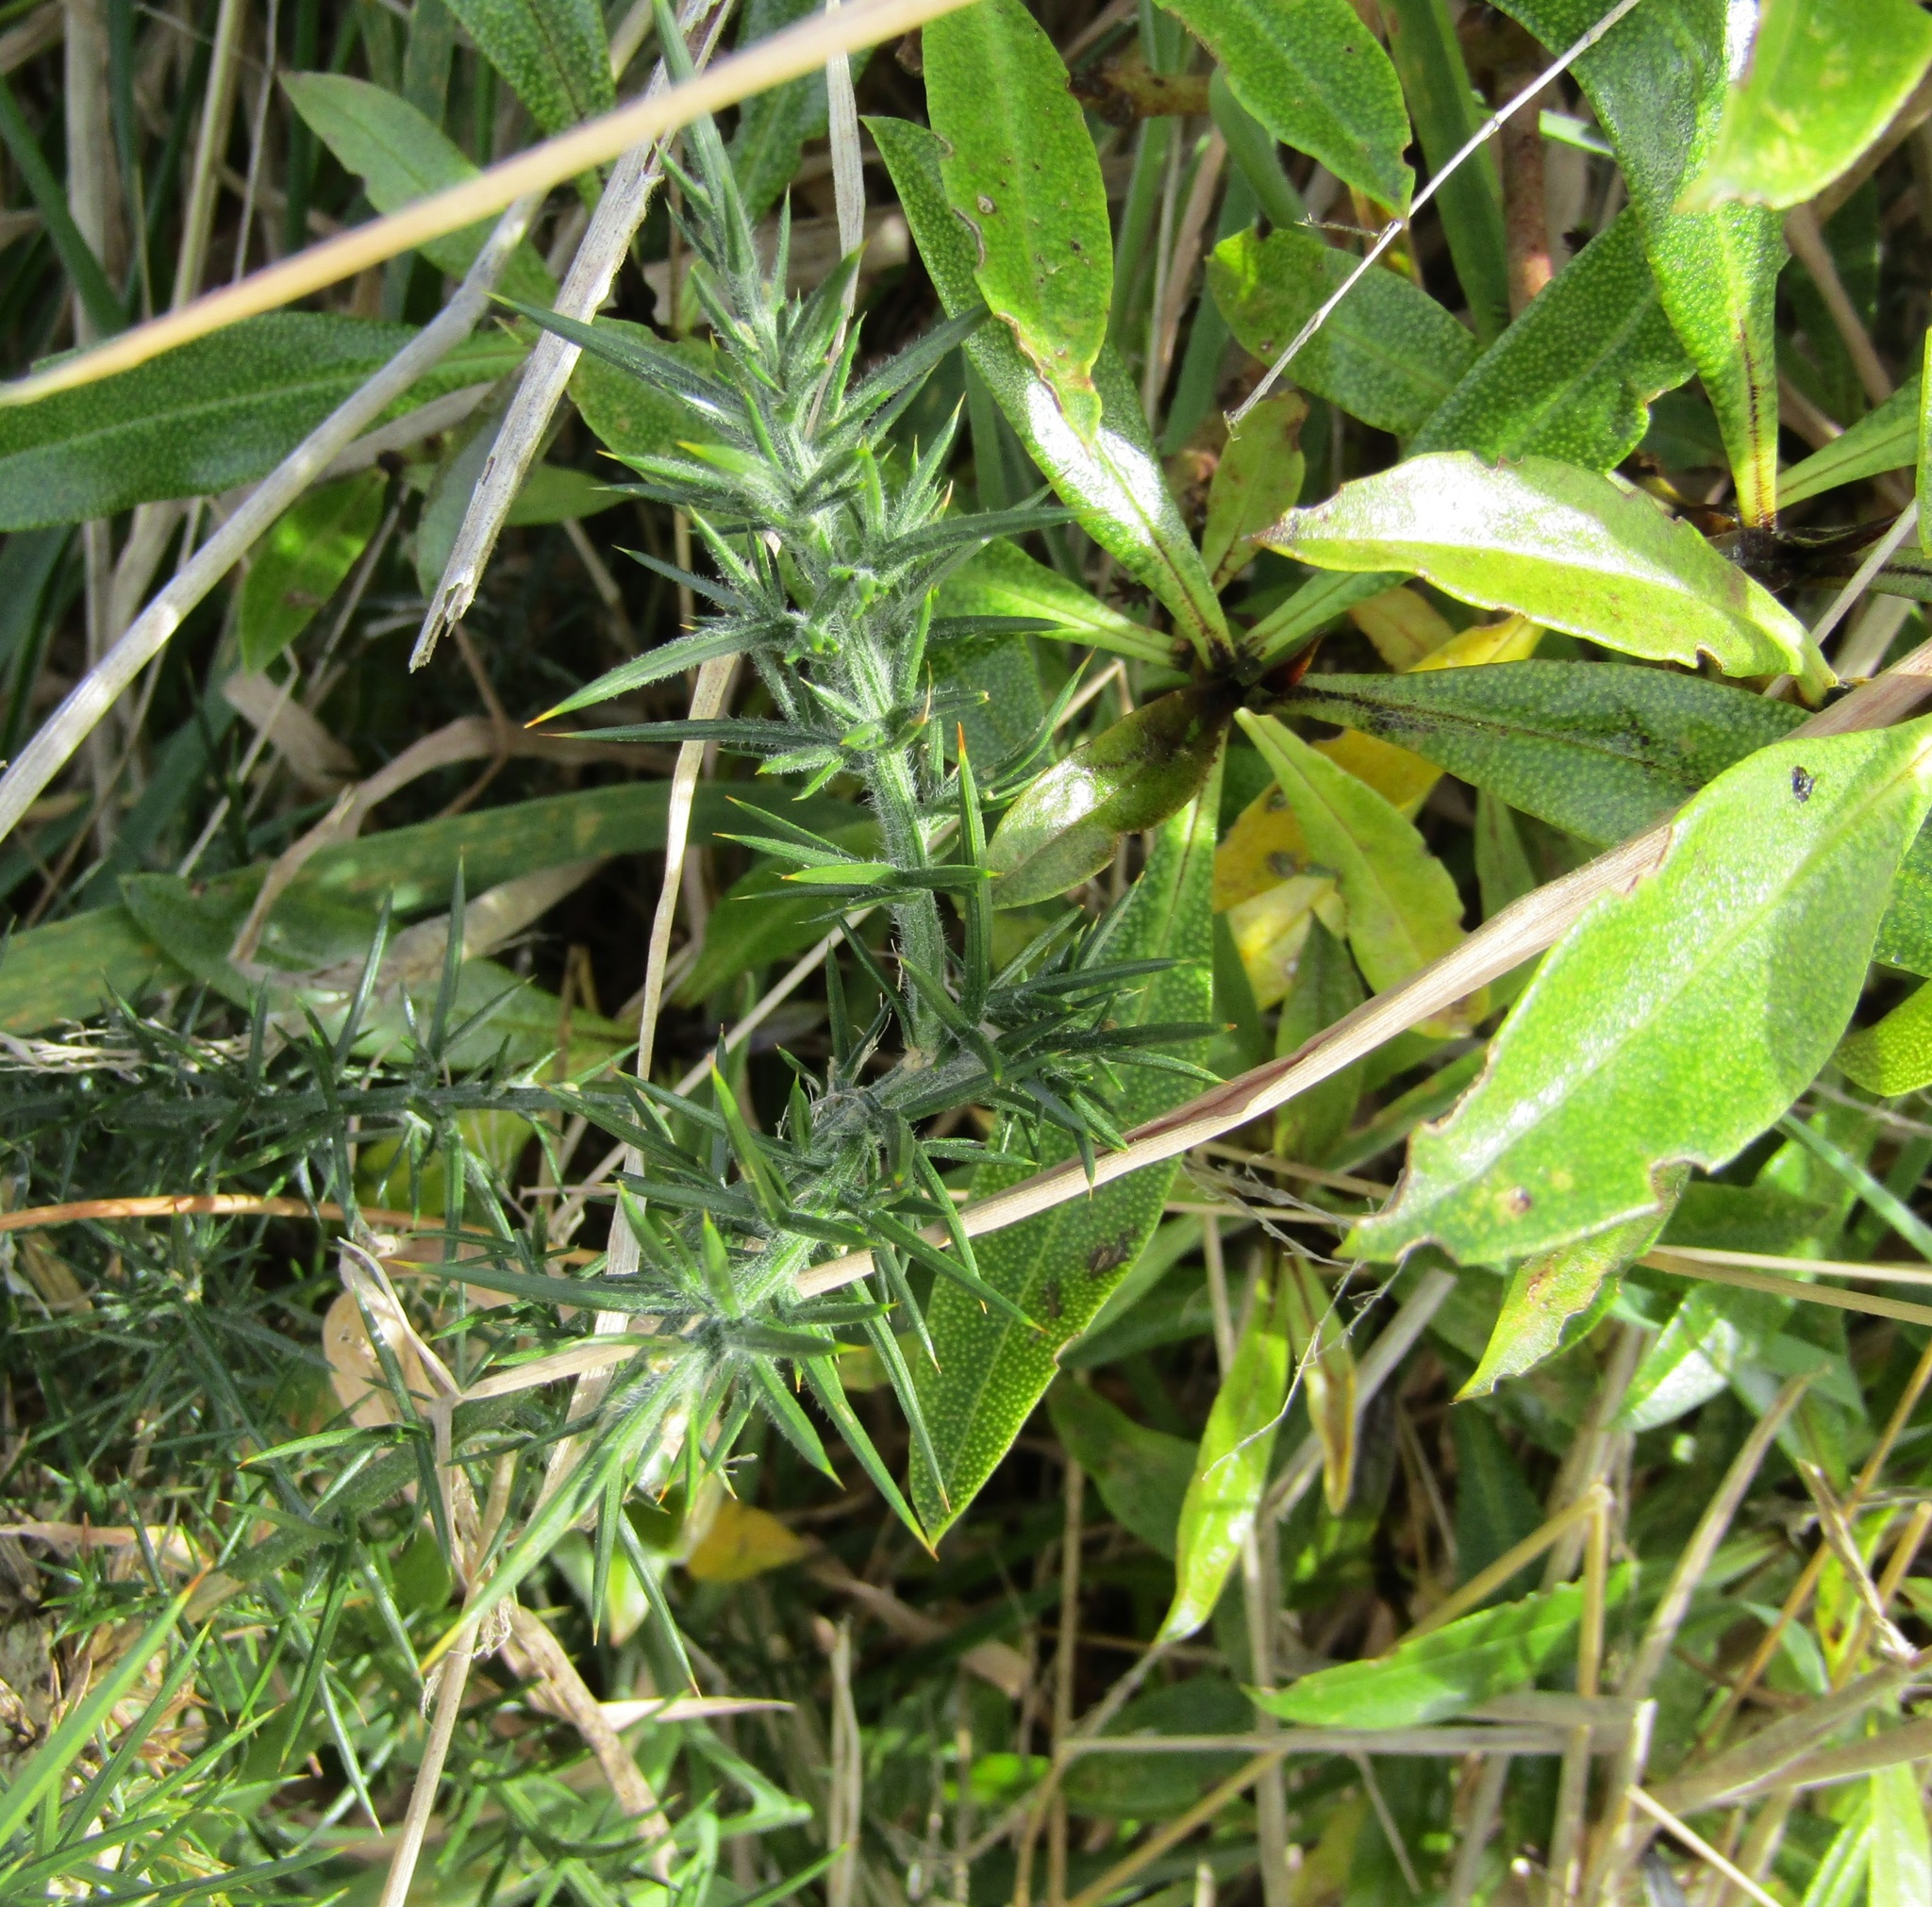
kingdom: Plantae
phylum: Tracheophyta
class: Magnoliopsida
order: Fabales
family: Fabaceae
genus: Ulex
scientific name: Ulex europaeus
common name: Common gorse
